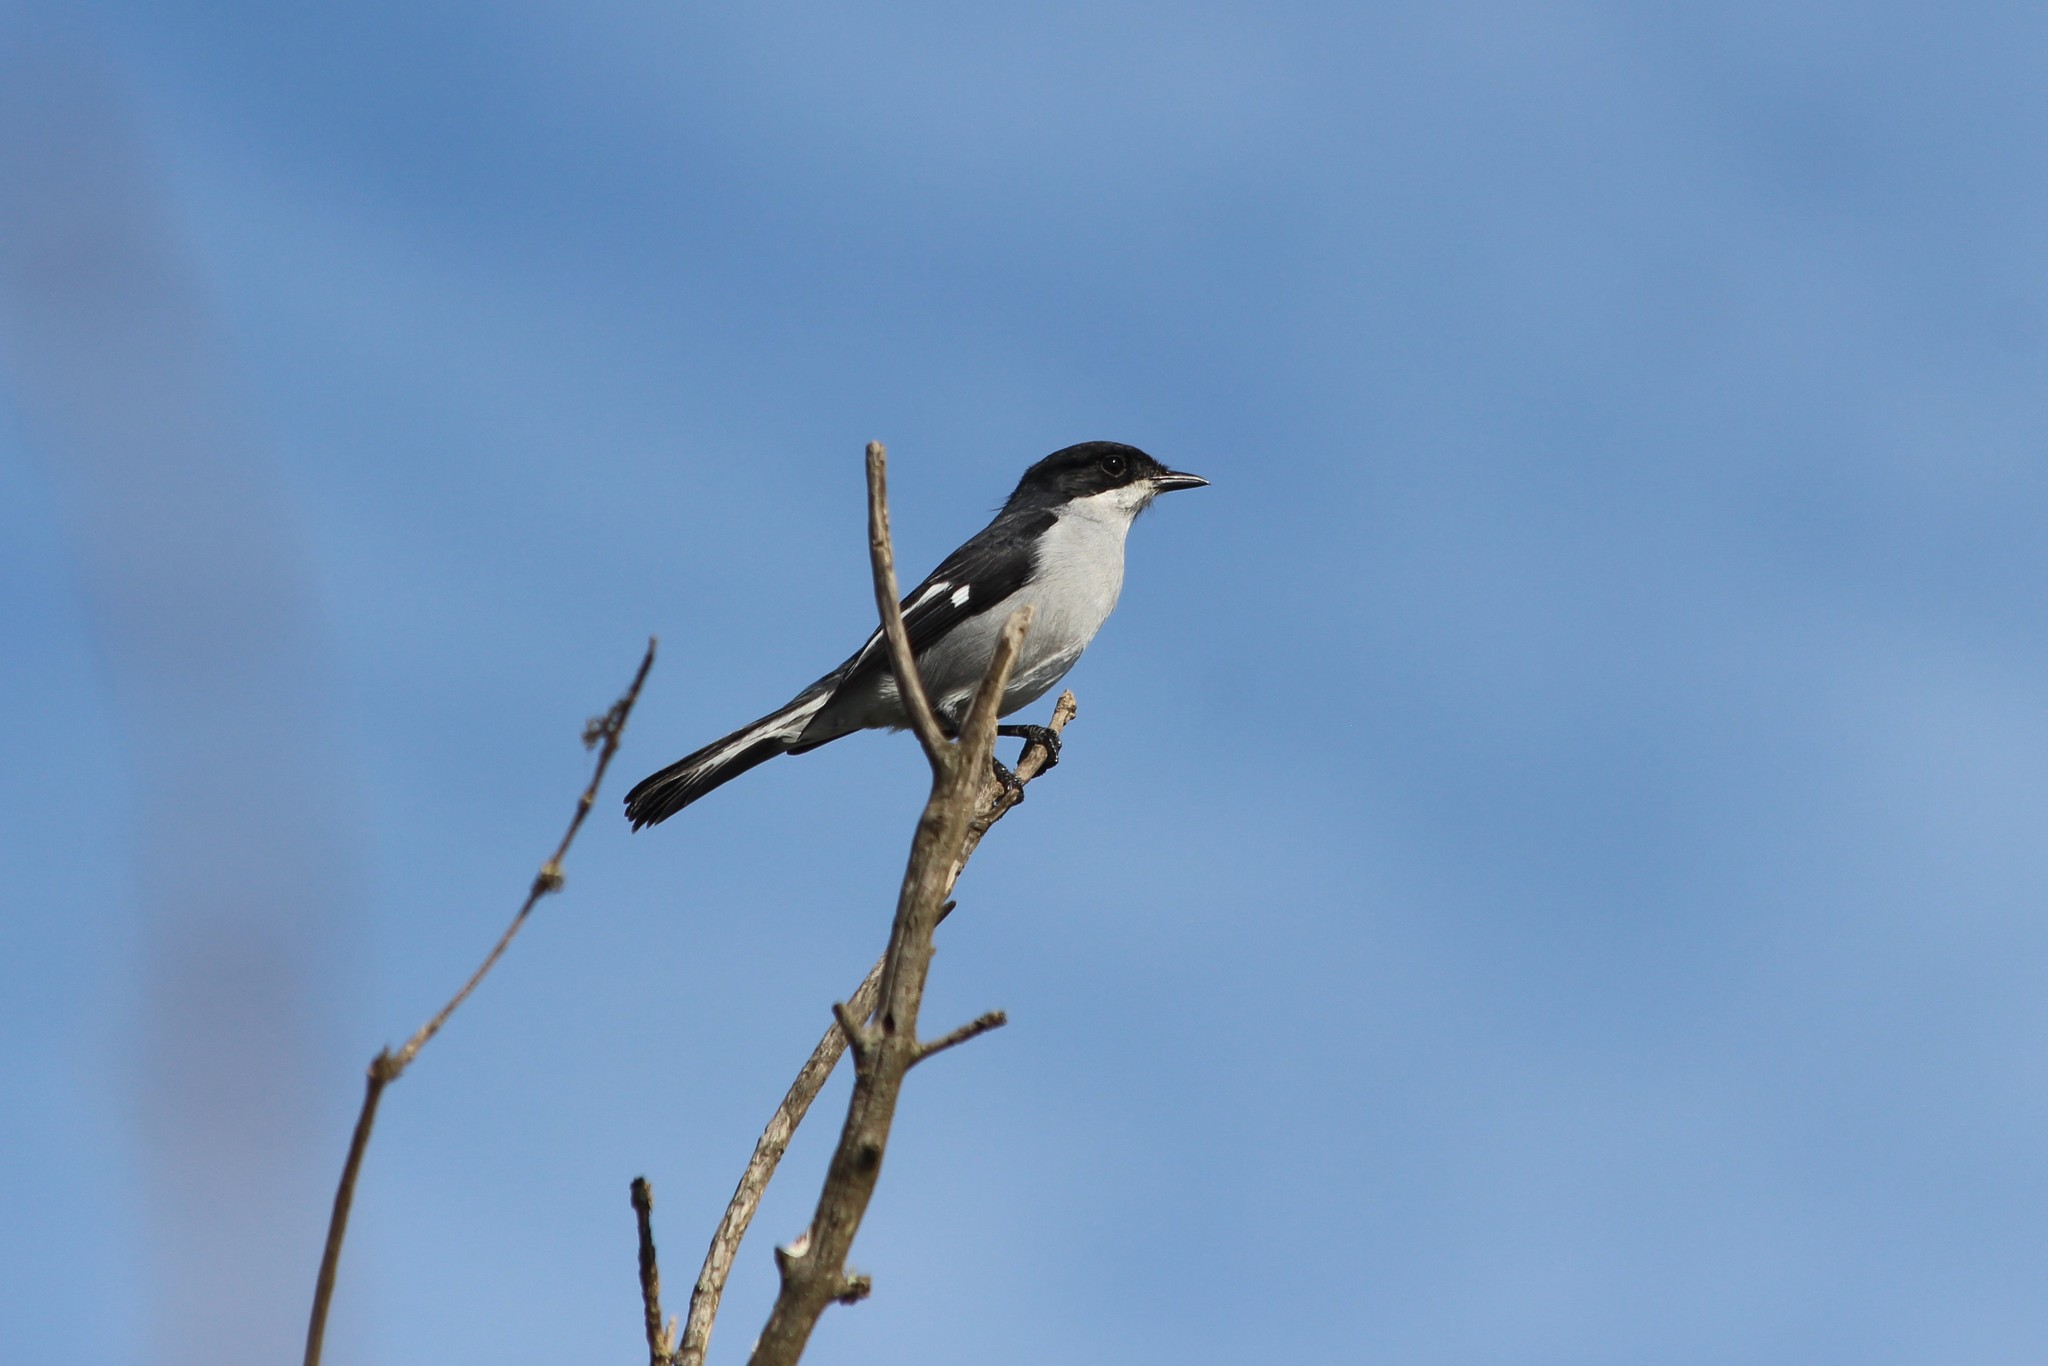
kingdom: Animalia
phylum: Chordata
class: Aves
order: Passeriformes
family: Muscicapidae
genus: Sigelus
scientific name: Sigelus silens
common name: Fiscal flycatcher
